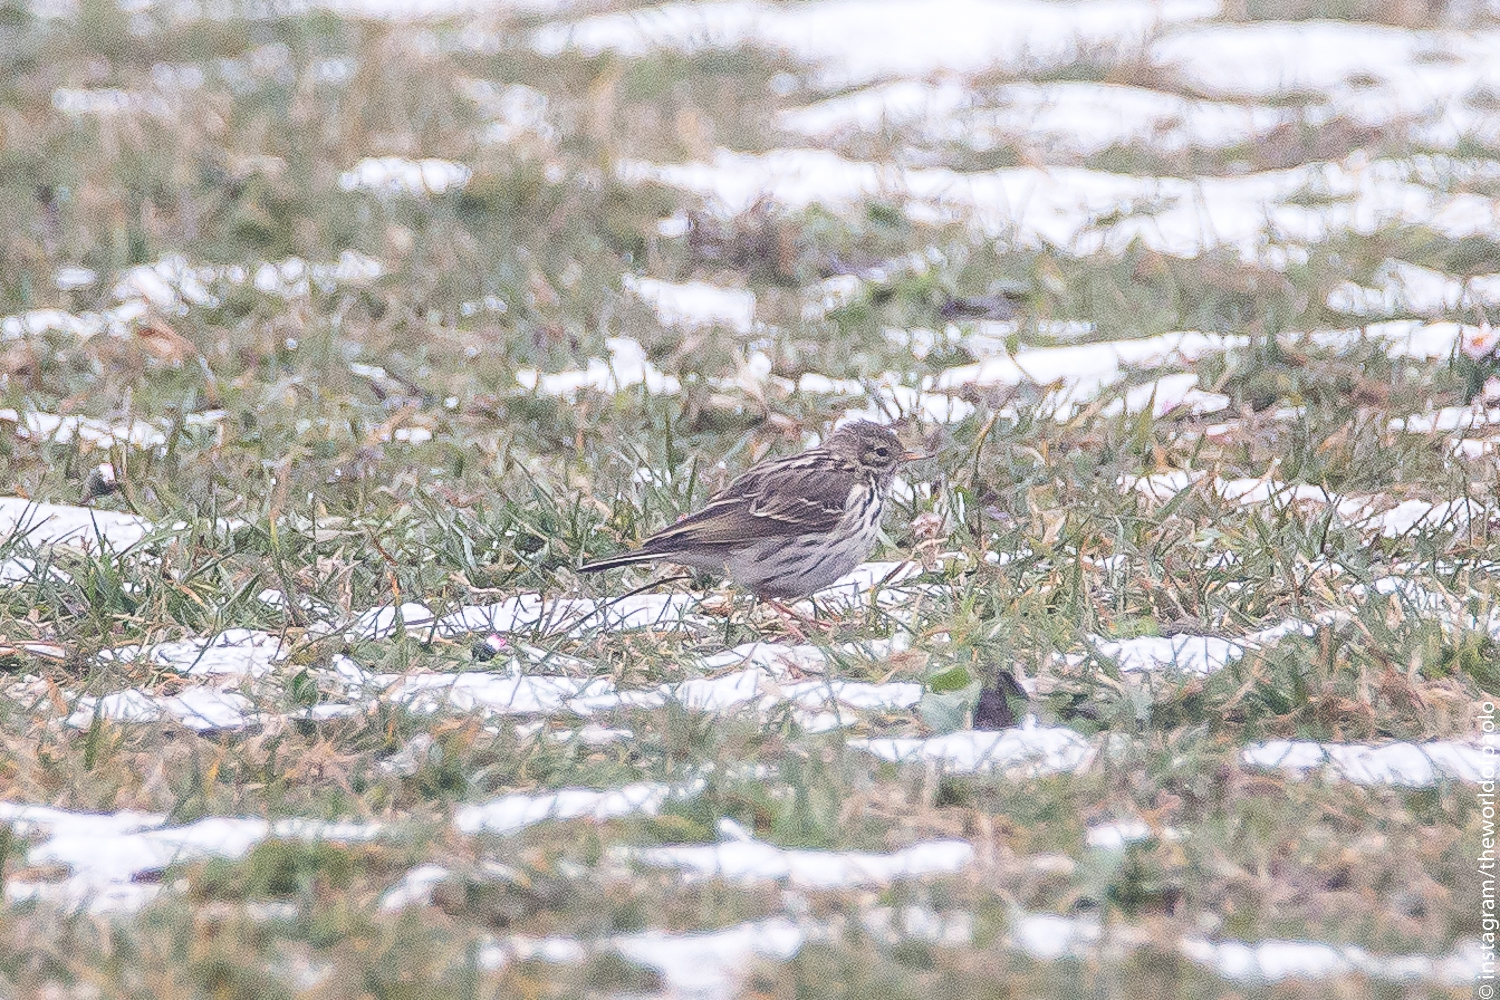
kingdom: Animalia
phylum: Chordata
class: Aves
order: Passeriformes
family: Motacillidae
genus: Anthus
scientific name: Anthus pratensis
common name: Meadow pipit
